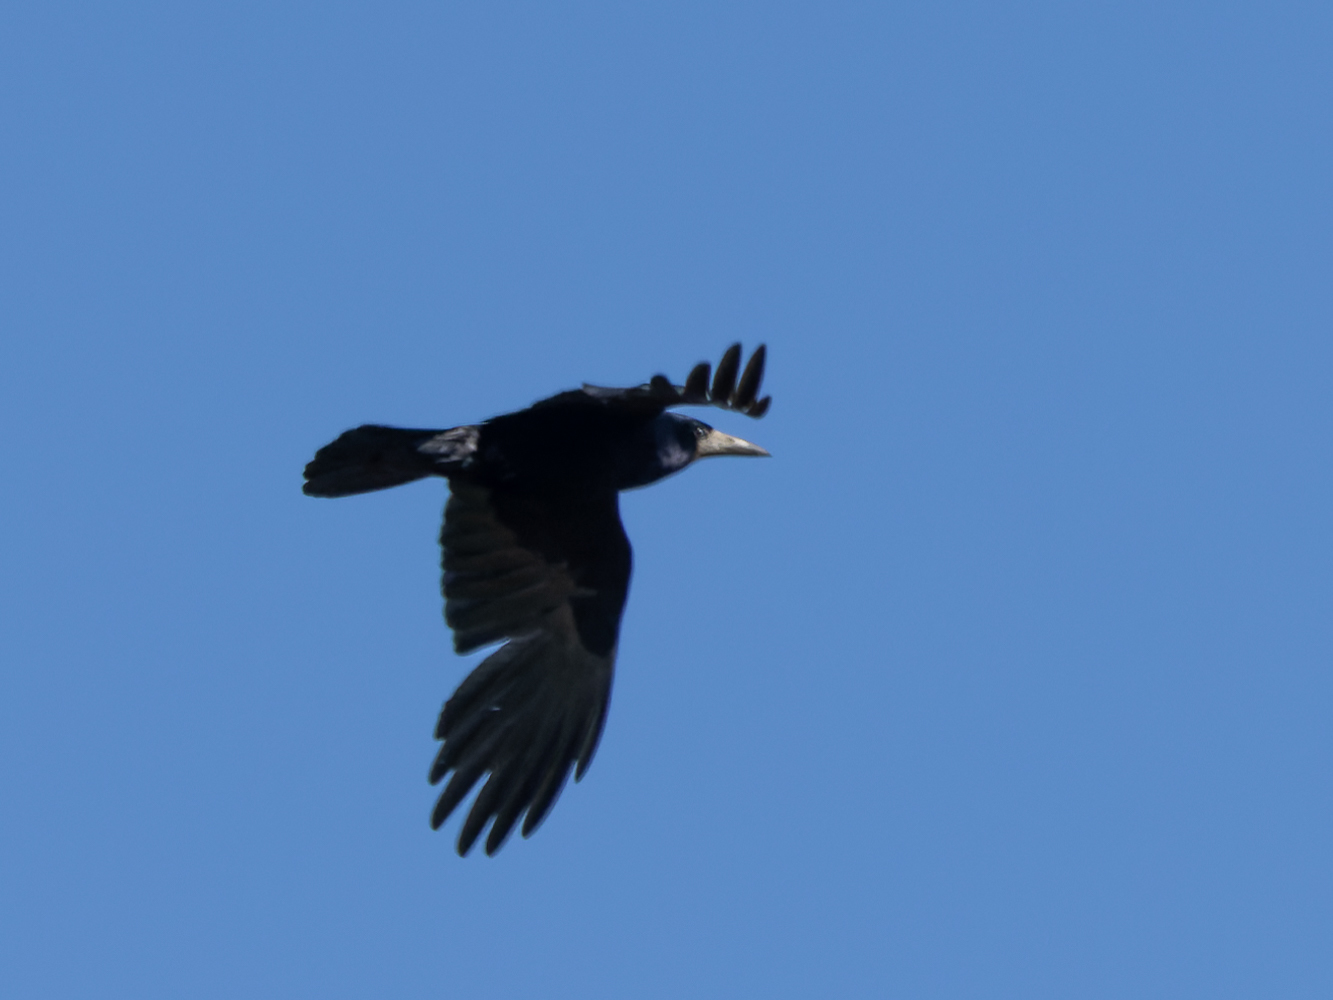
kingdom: Animalia
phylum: Chordata
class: Aves
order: Passeriformes
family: Corvidae
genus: Corvus
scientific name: Corvus frugilegus
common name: Rook
